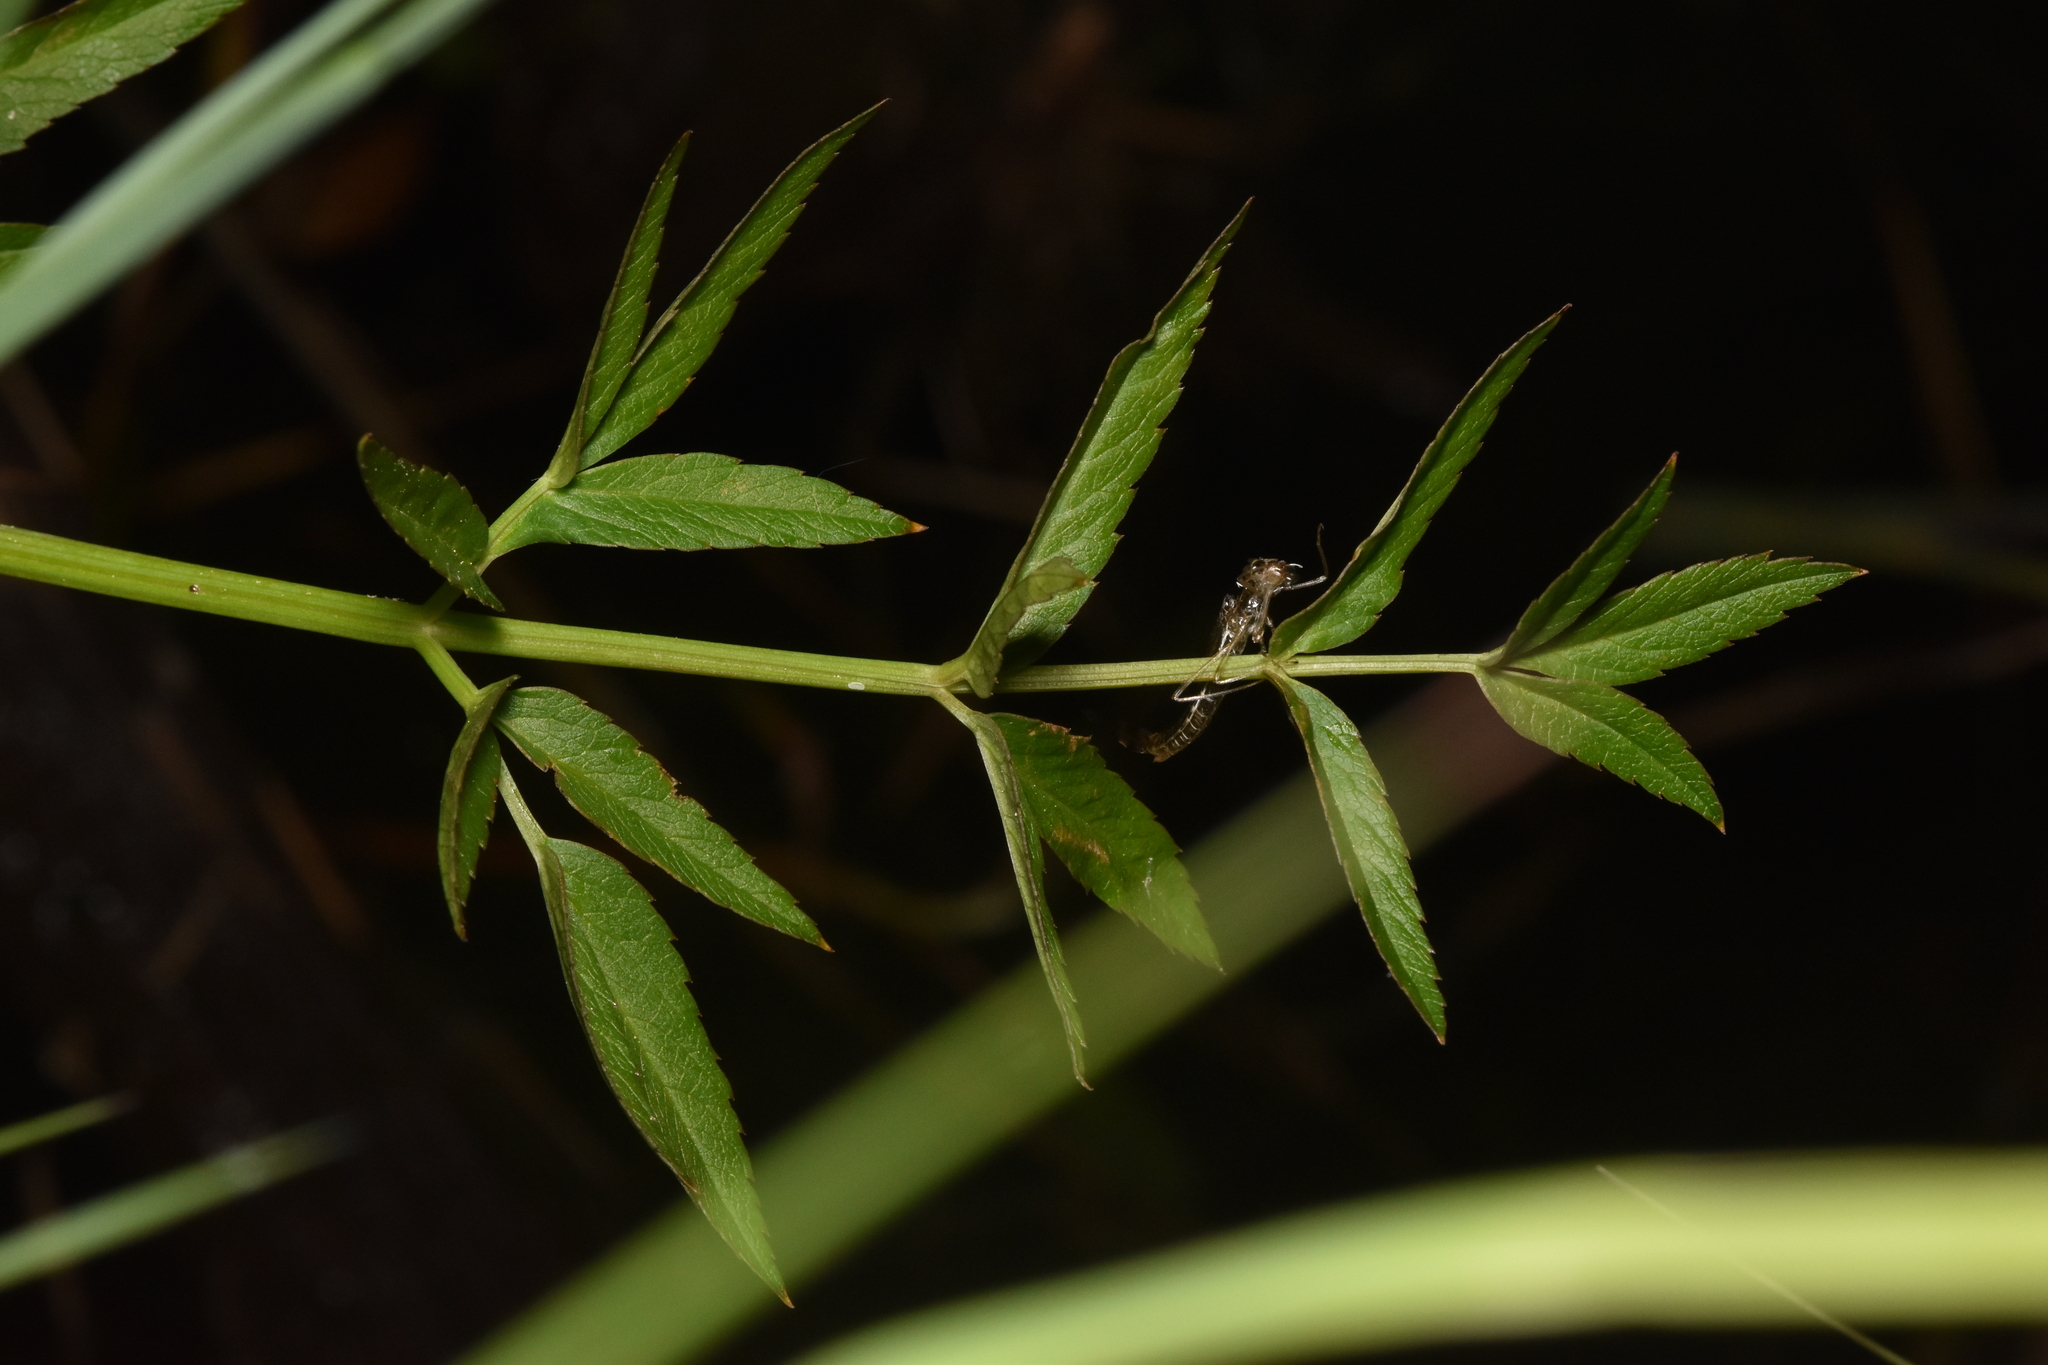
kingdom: Plantae
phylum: Tracheophyta
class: Magnoliopsida
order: Apiales
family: Apiaceae
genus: Cicuta
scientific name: Cicuta douglasii
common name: Western water-hemlock
